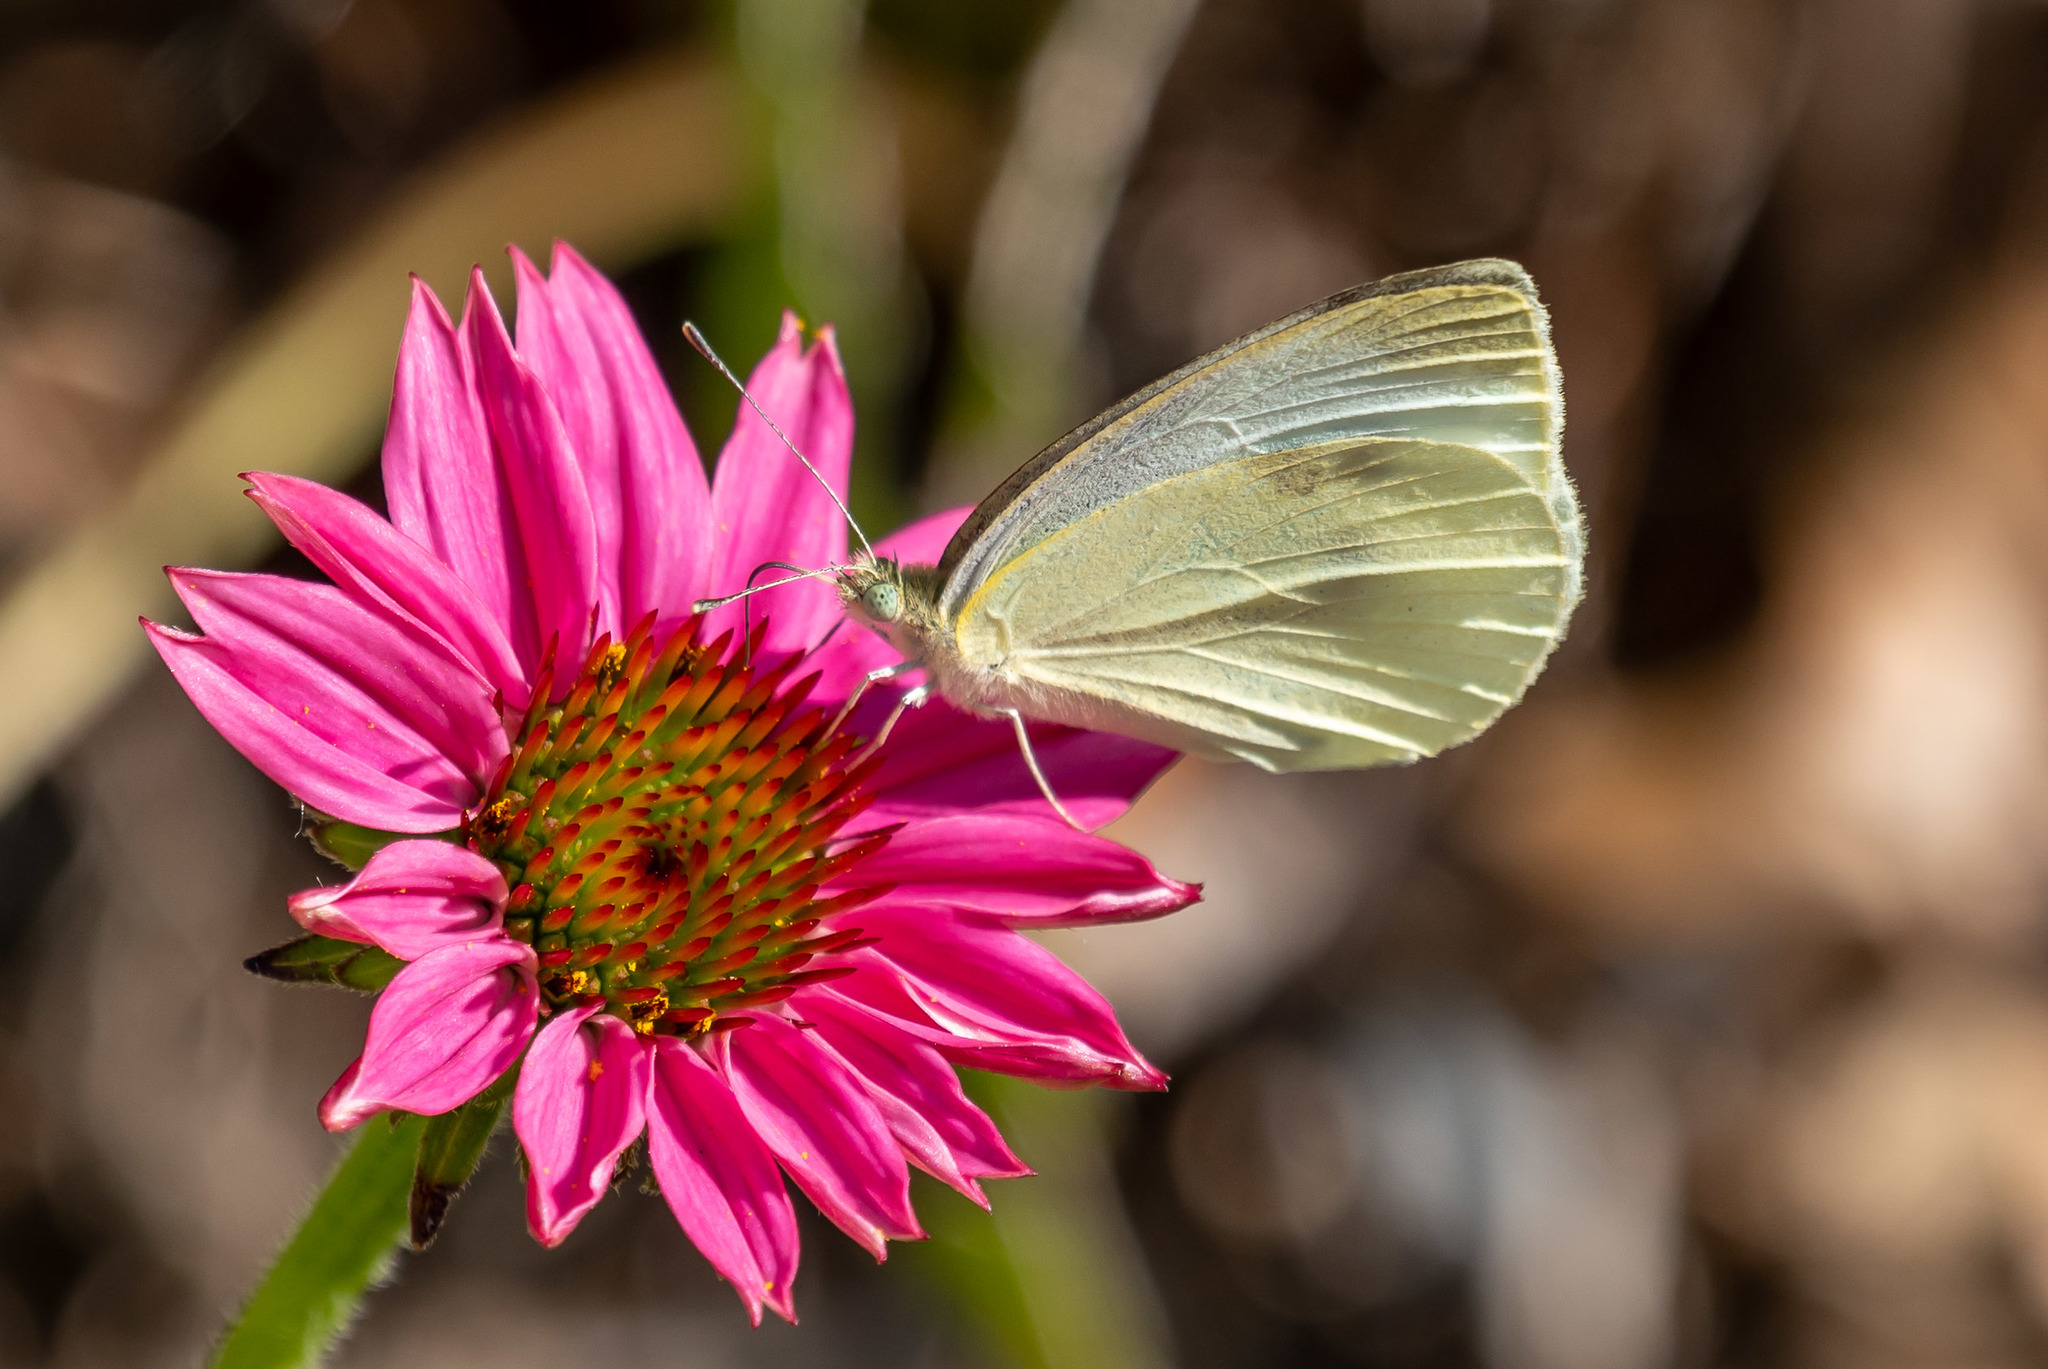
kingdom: Animalia
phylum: Arthropoda
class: Insecta
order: Lepidoptera
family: Pieridae
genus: Pieris
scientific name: Pieris rapae
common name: Small white
